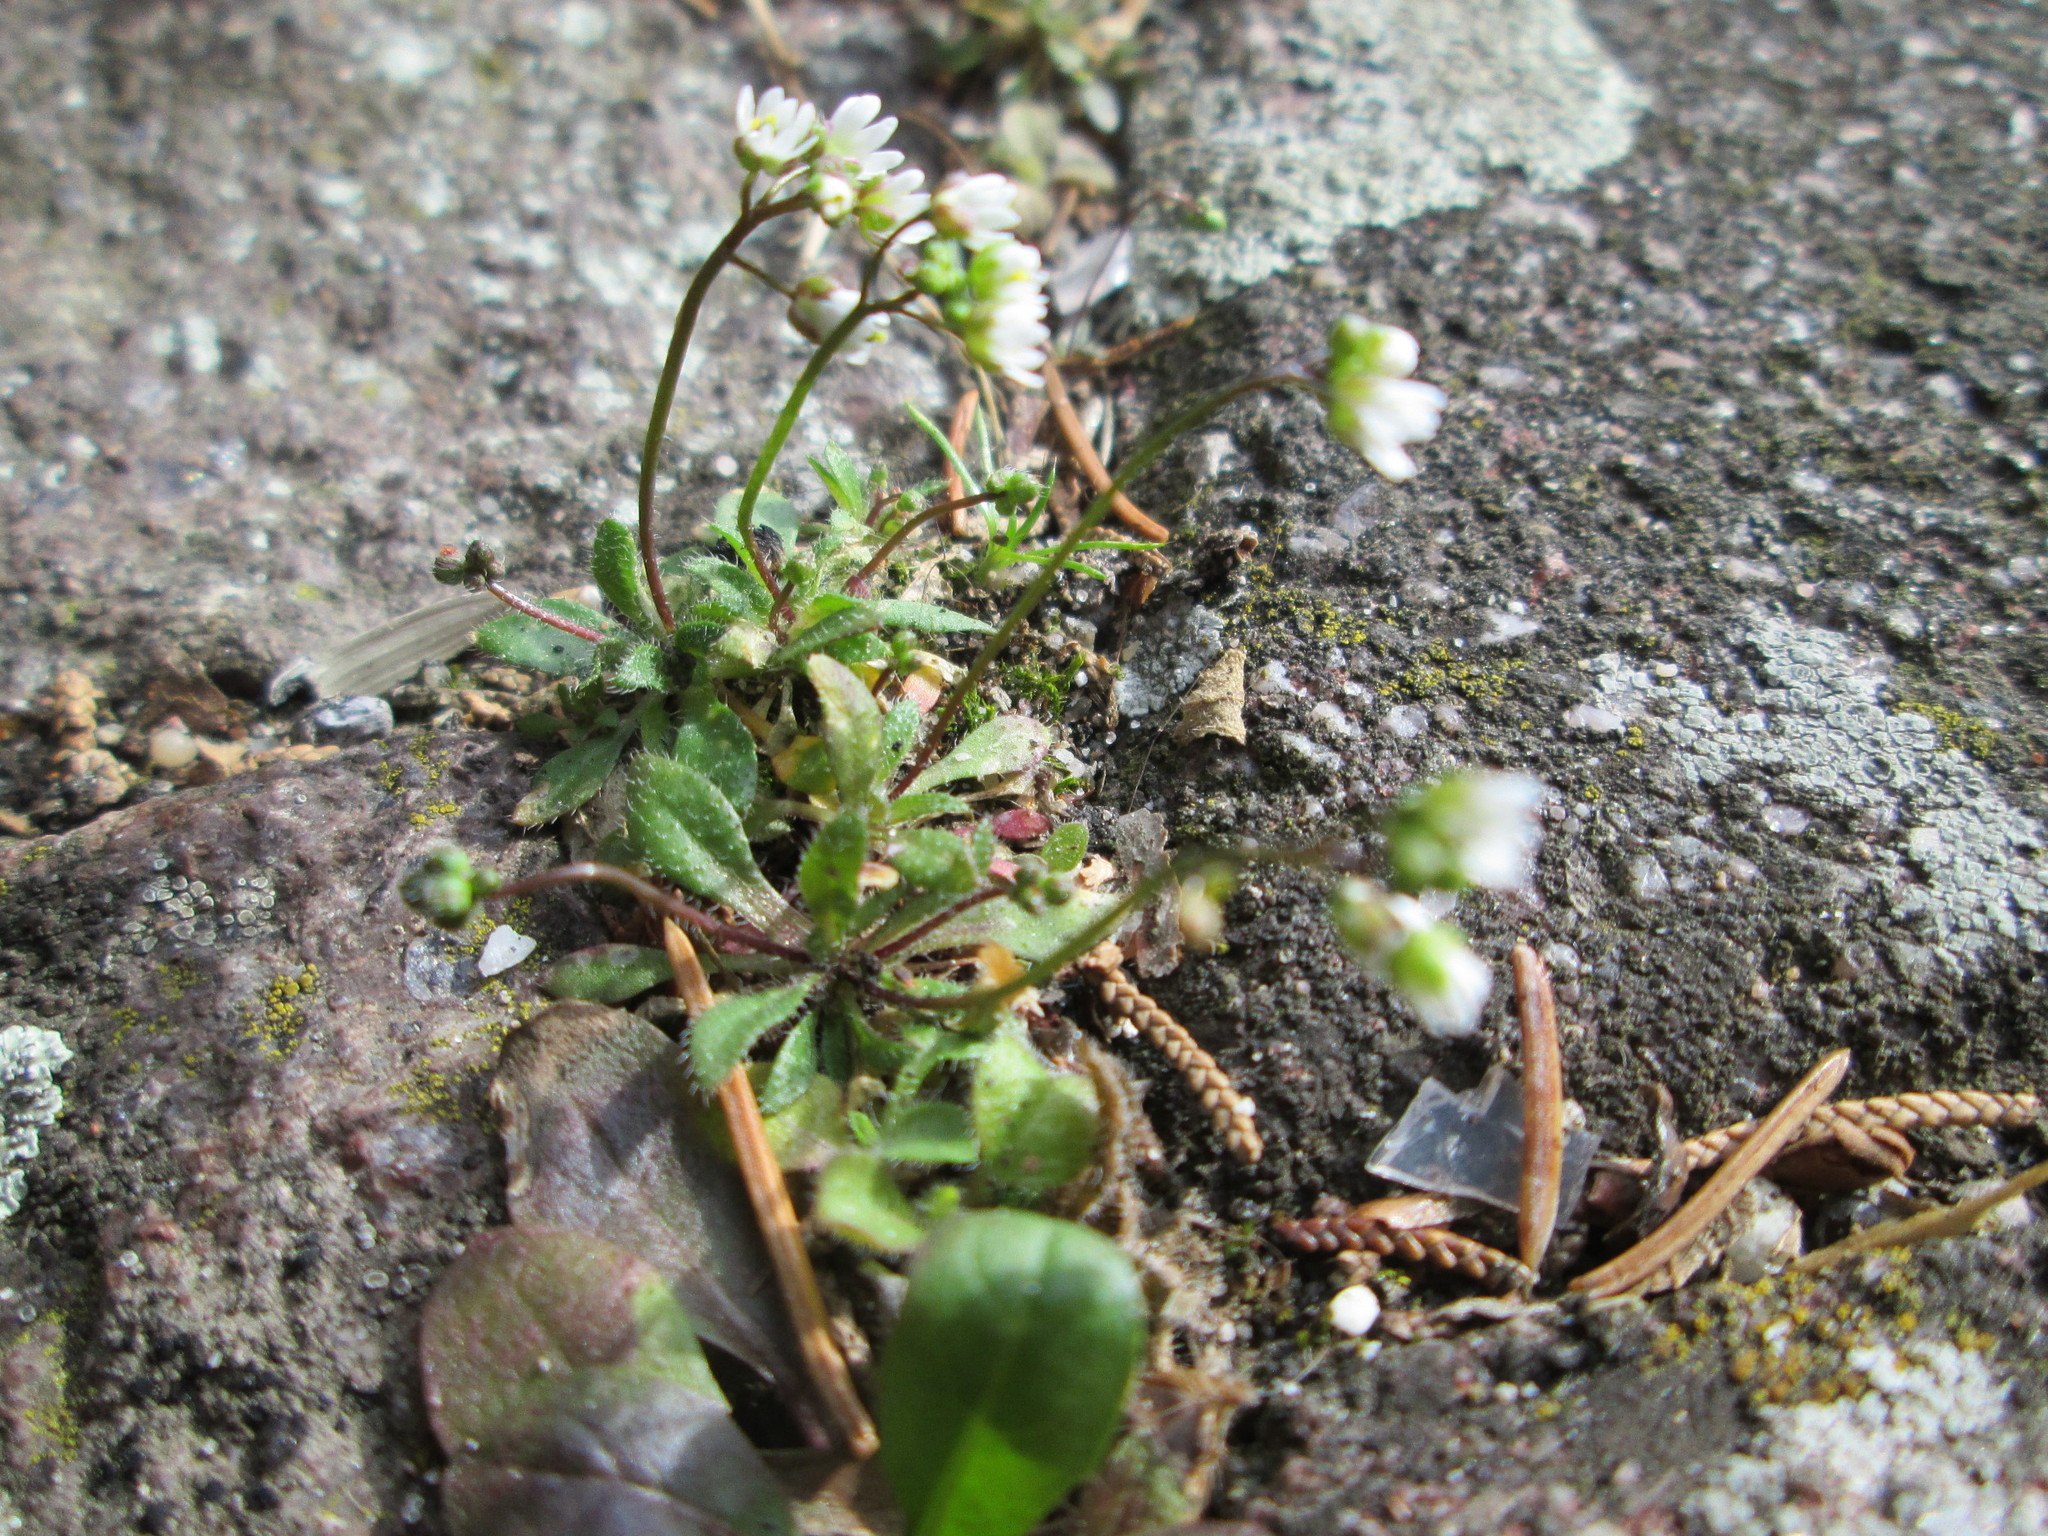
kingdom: Plantae
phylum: Tracheophyta
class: Magnoliopsida
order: Brassicales
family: Brassicaceae
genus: Draba
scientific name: Draba verna
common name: Spring draba
